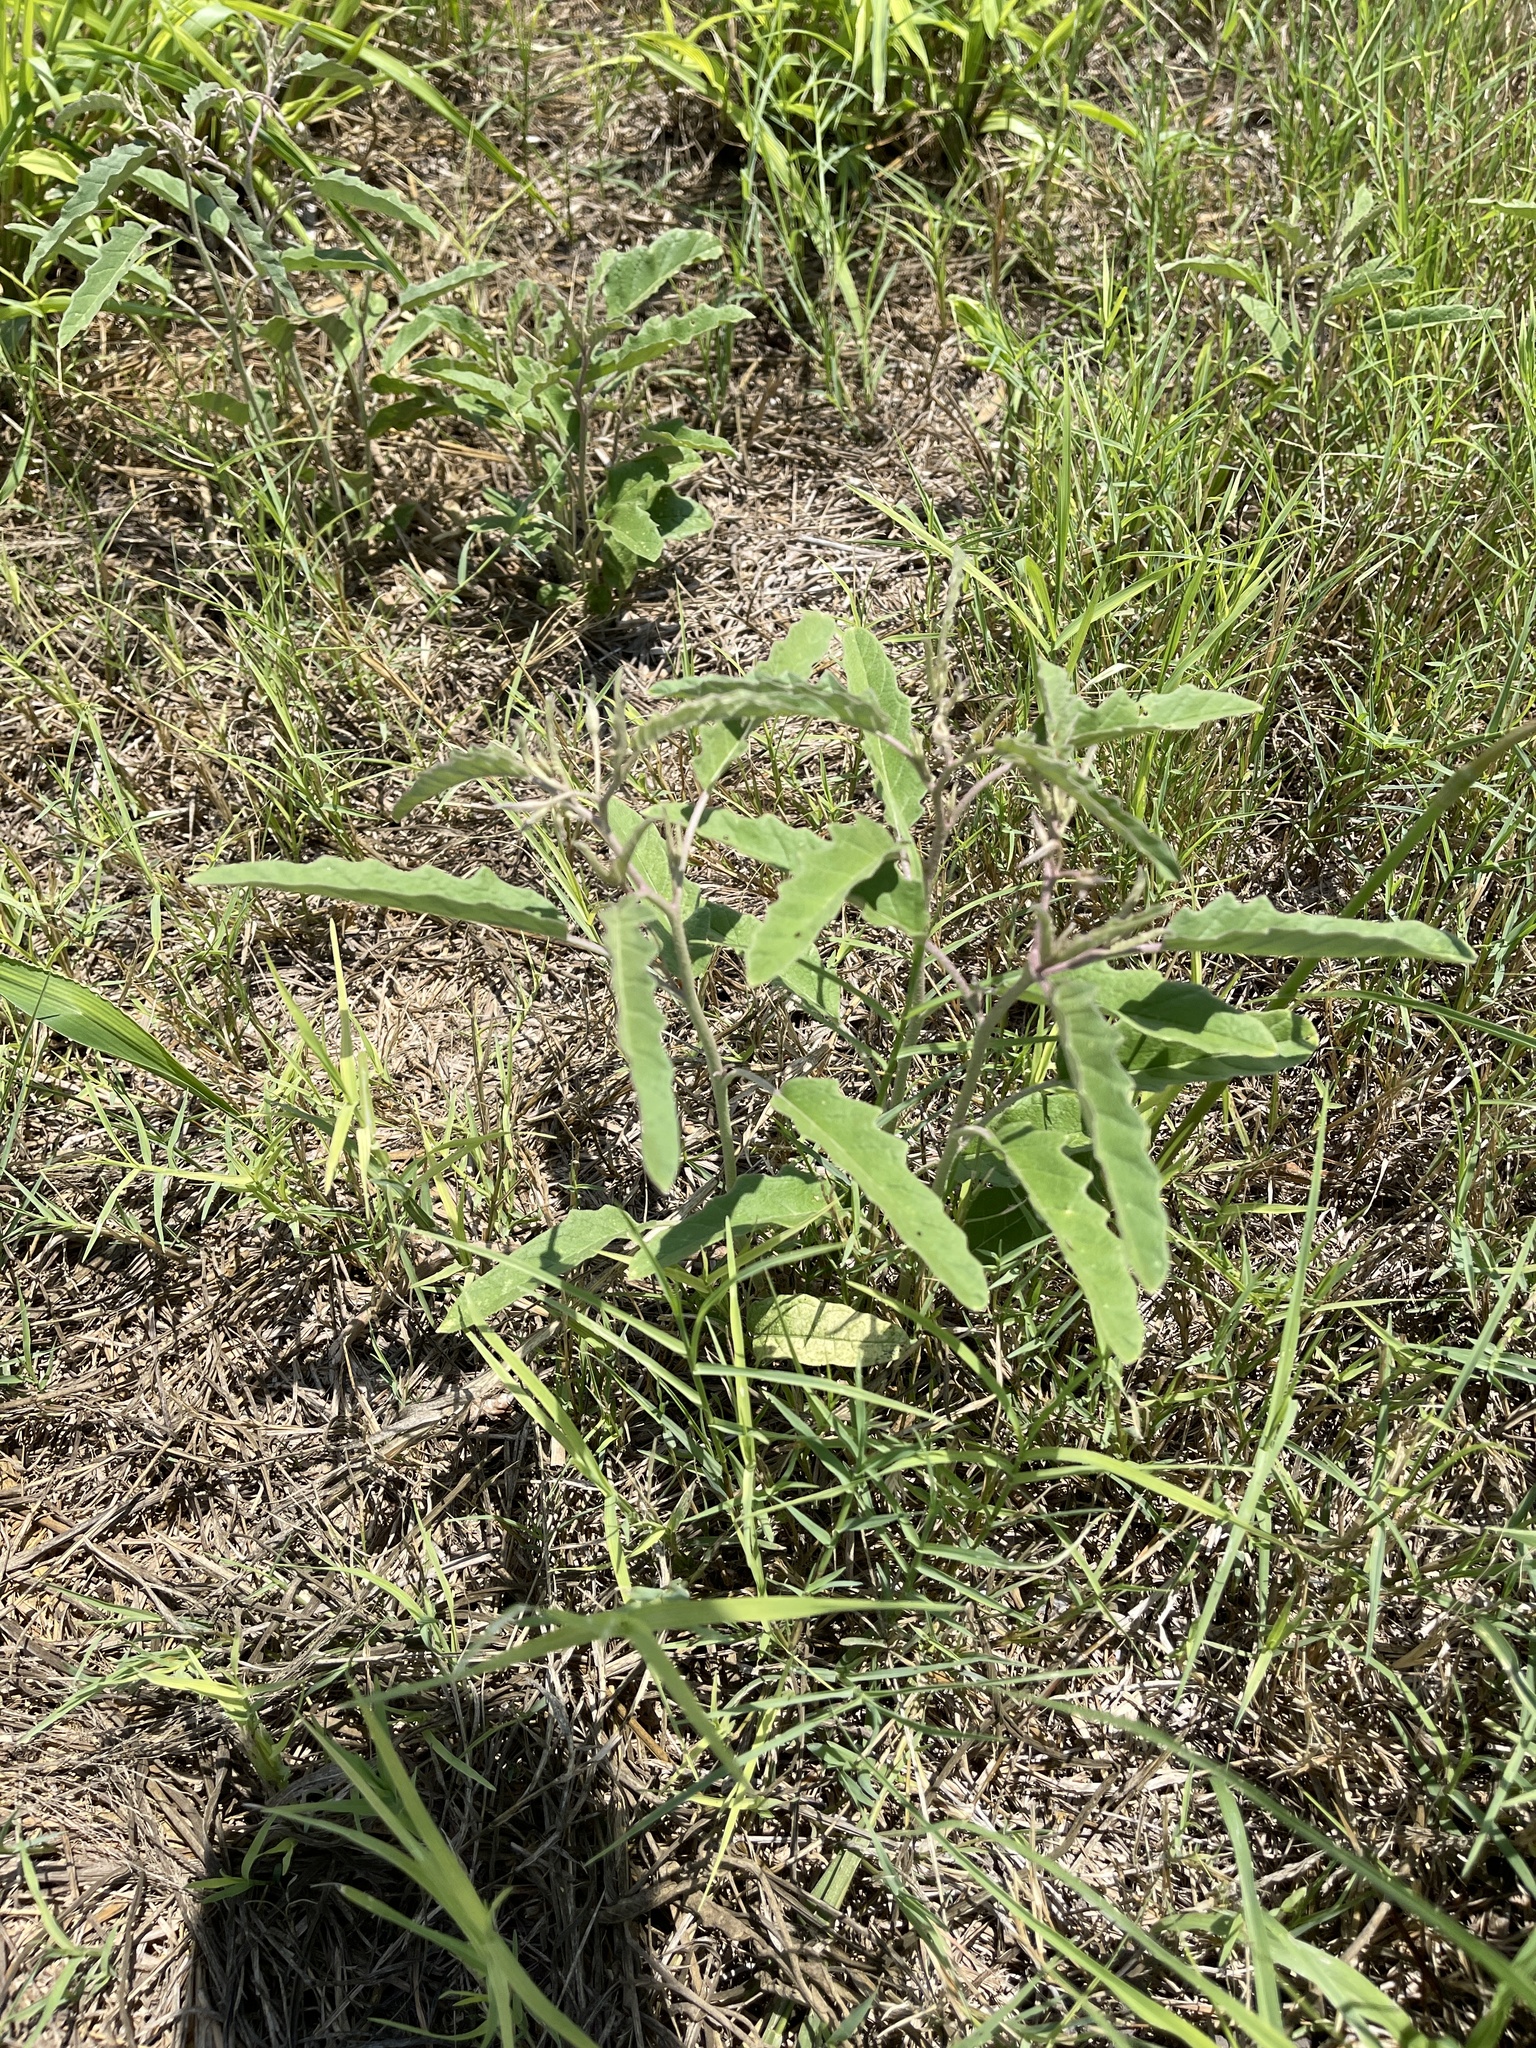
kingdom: Plantae
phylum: Tracheophyta
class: Magnoliopsida
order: Solanales
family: Solanaceae
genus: Solanum
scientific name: Solanum elaeagnifolium
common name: Silverleaf nightshade
